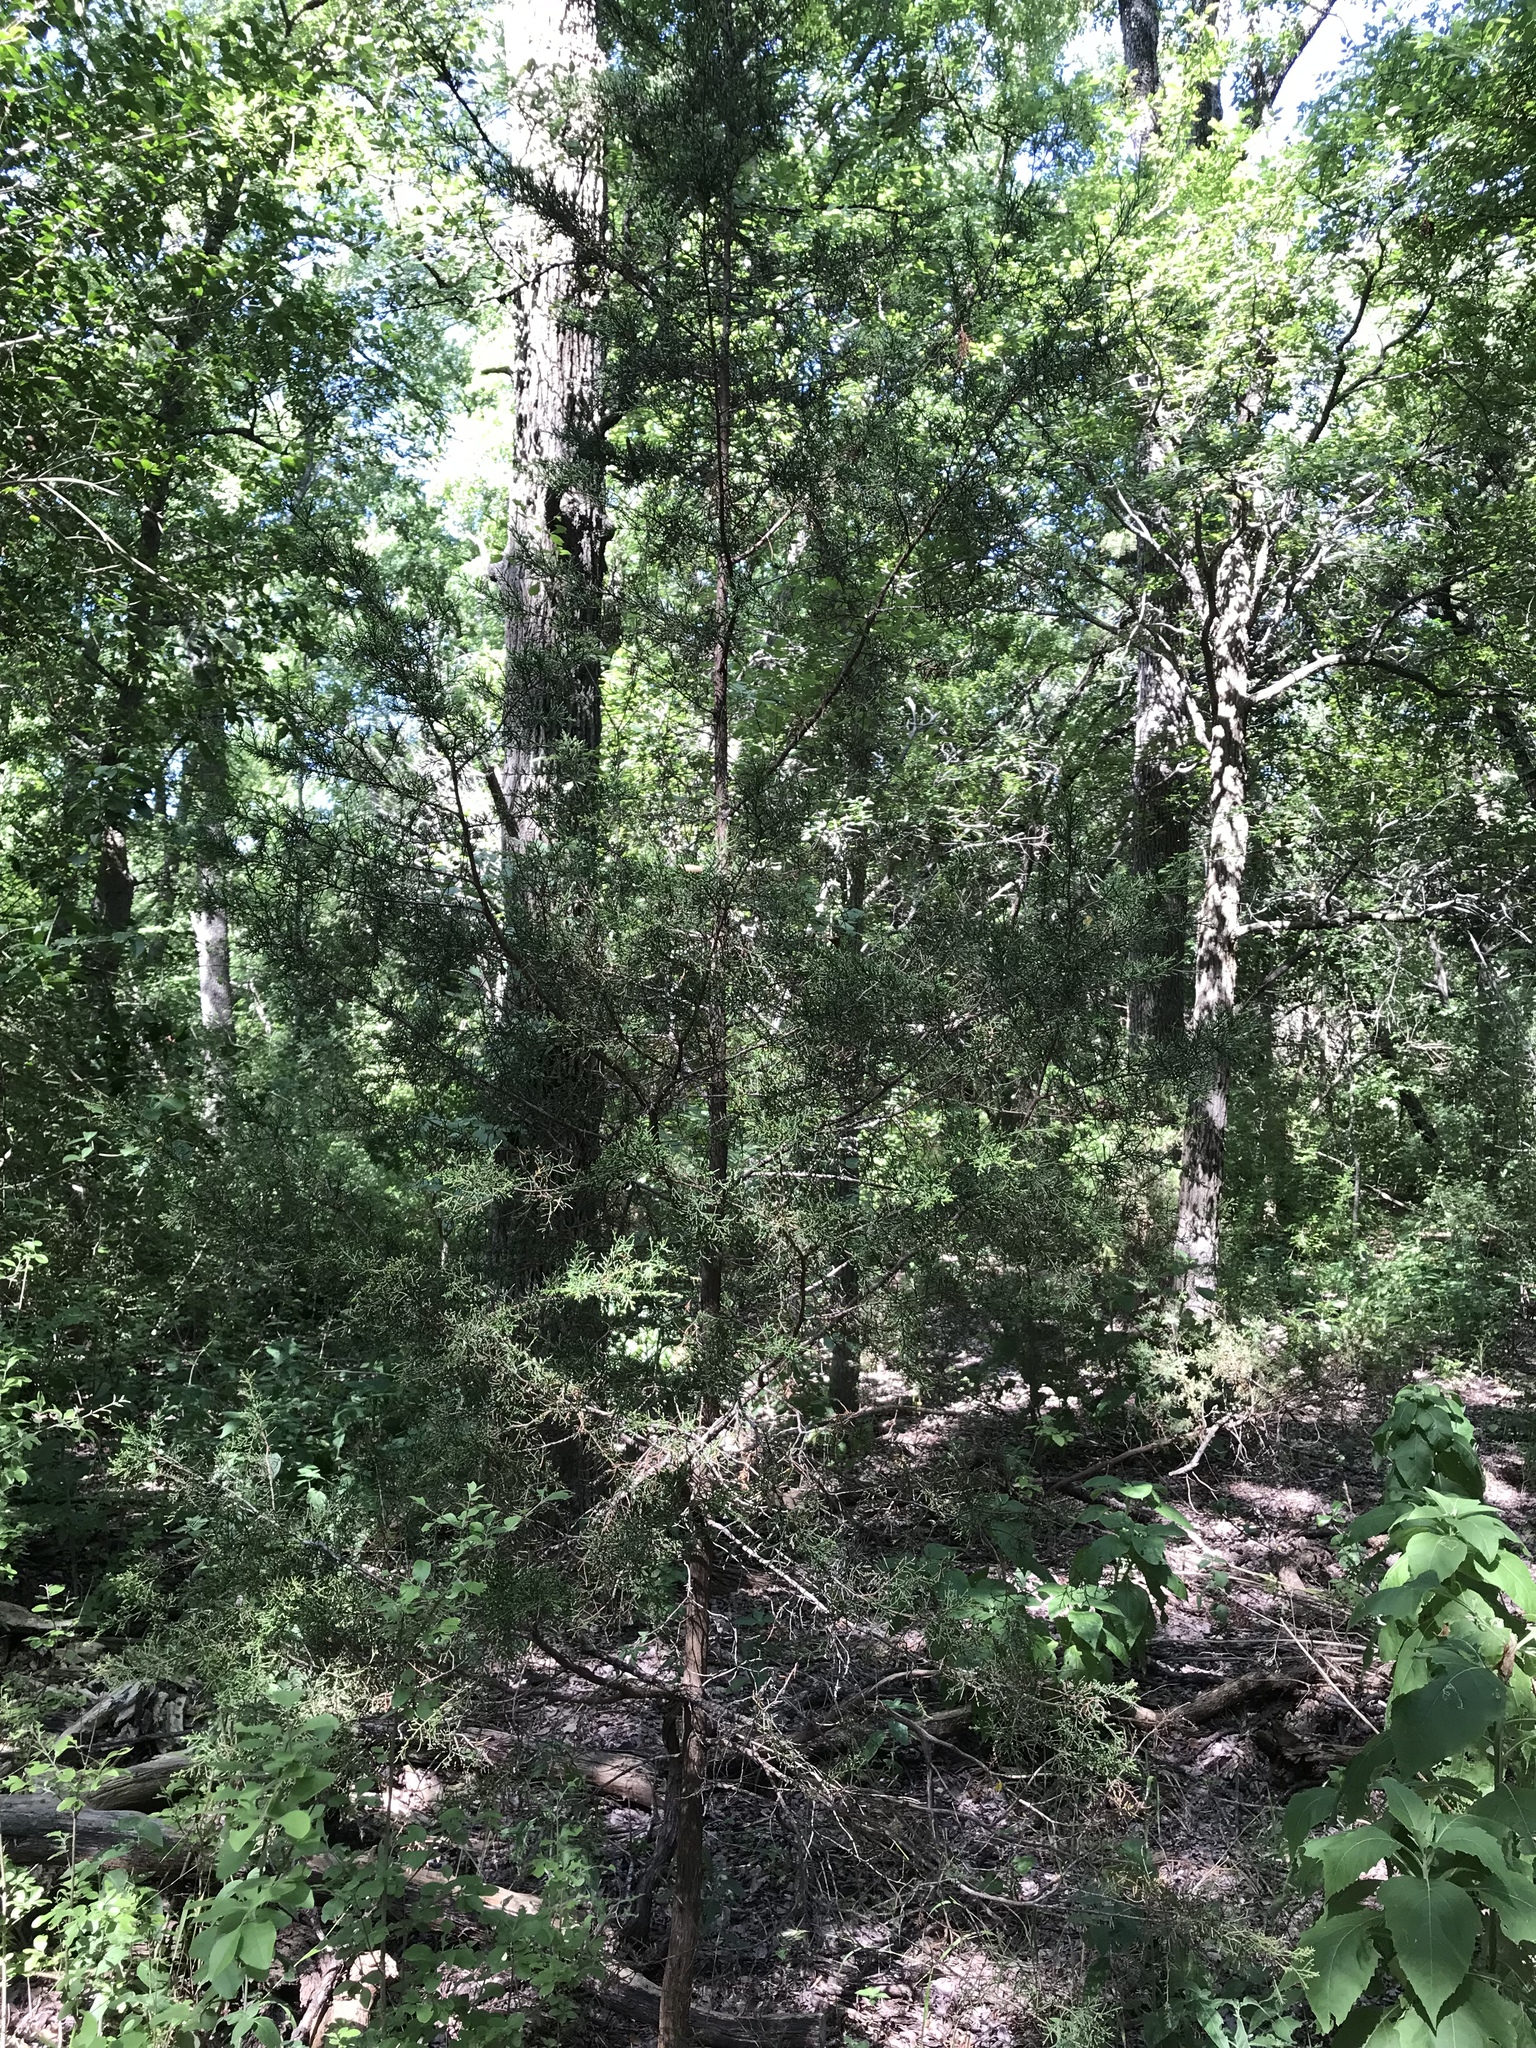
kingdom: Plantae
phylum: Tracheophyta
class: Pinopsida
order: Pinales
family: Cupressaceae
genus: Juniperus
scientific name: Juniperus virginiana
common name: Red juniper
